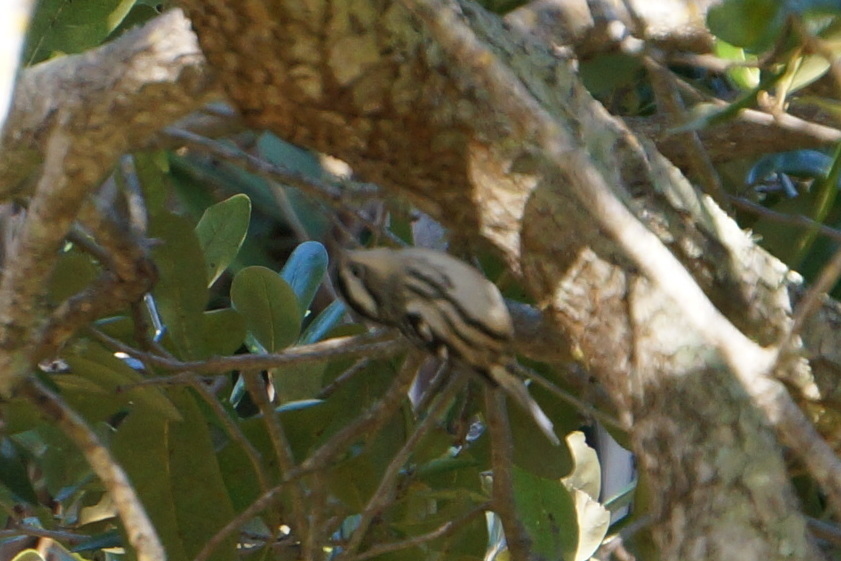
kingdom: Animalia
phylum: Chordata
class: Aves
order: Passeriformes
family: Parulidae
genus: Mniotilta
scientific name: Mniotilta varia
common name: Black-and-white warbler
